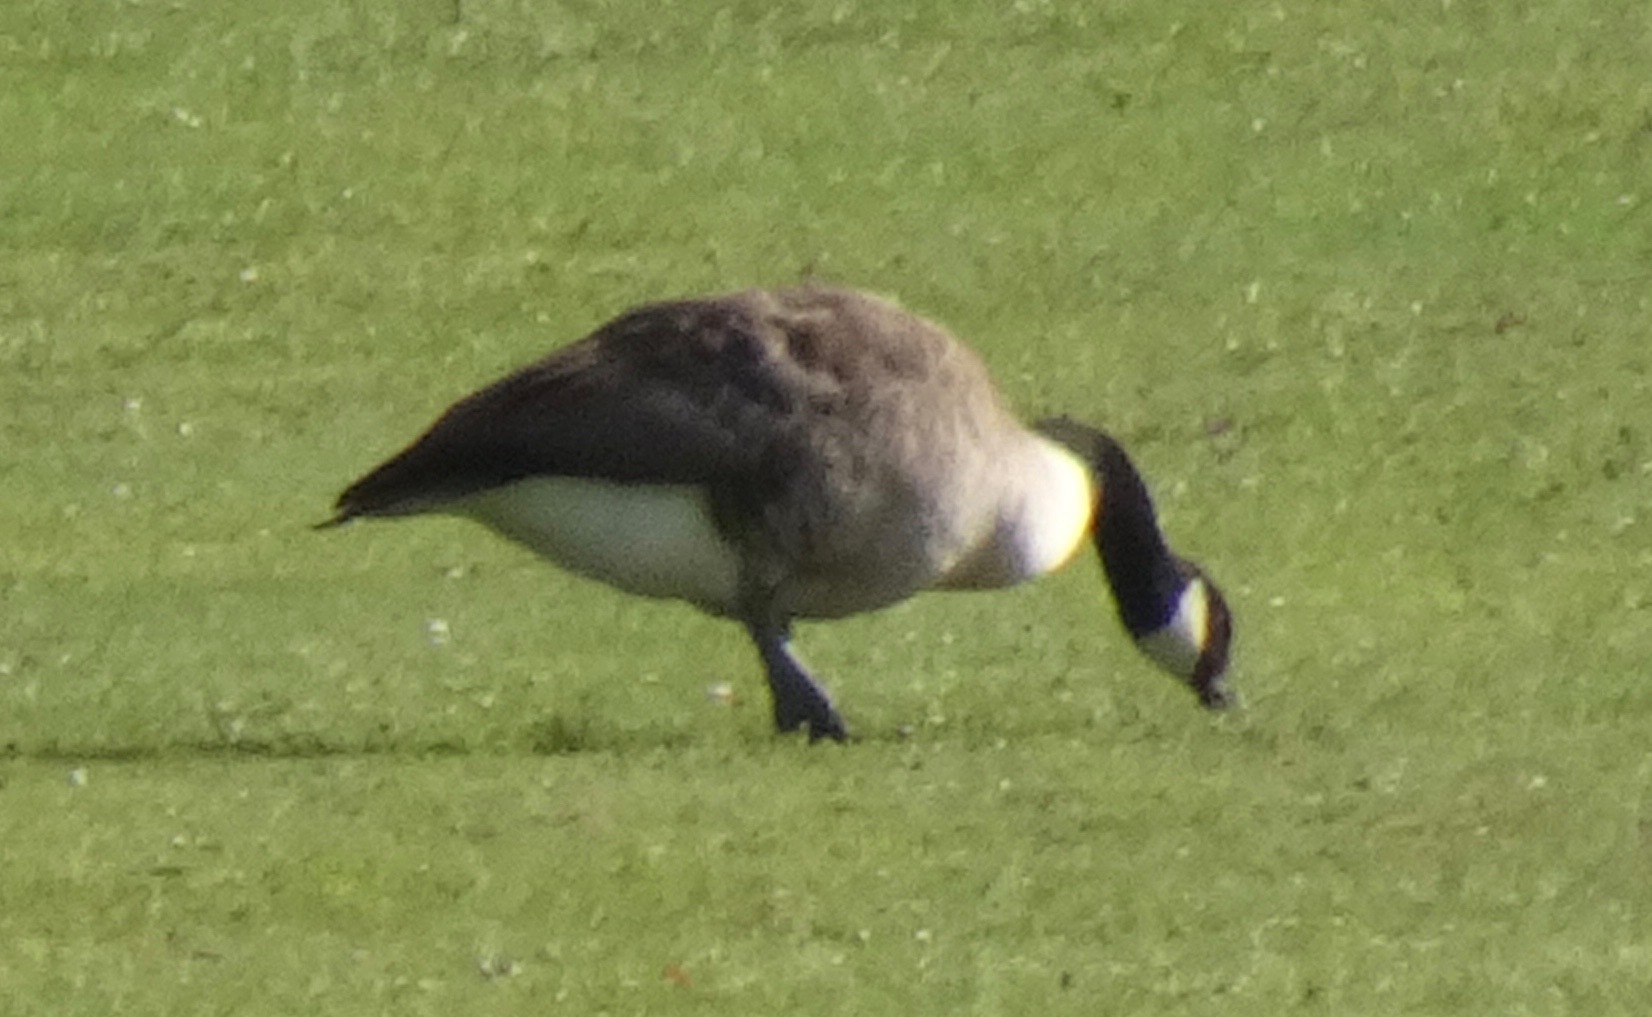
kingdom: Animalia
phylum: Chordata
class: Aves
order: Anseriformes
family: Anatidae
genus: Branta
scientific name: Branta canadensis
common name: Canada goose
